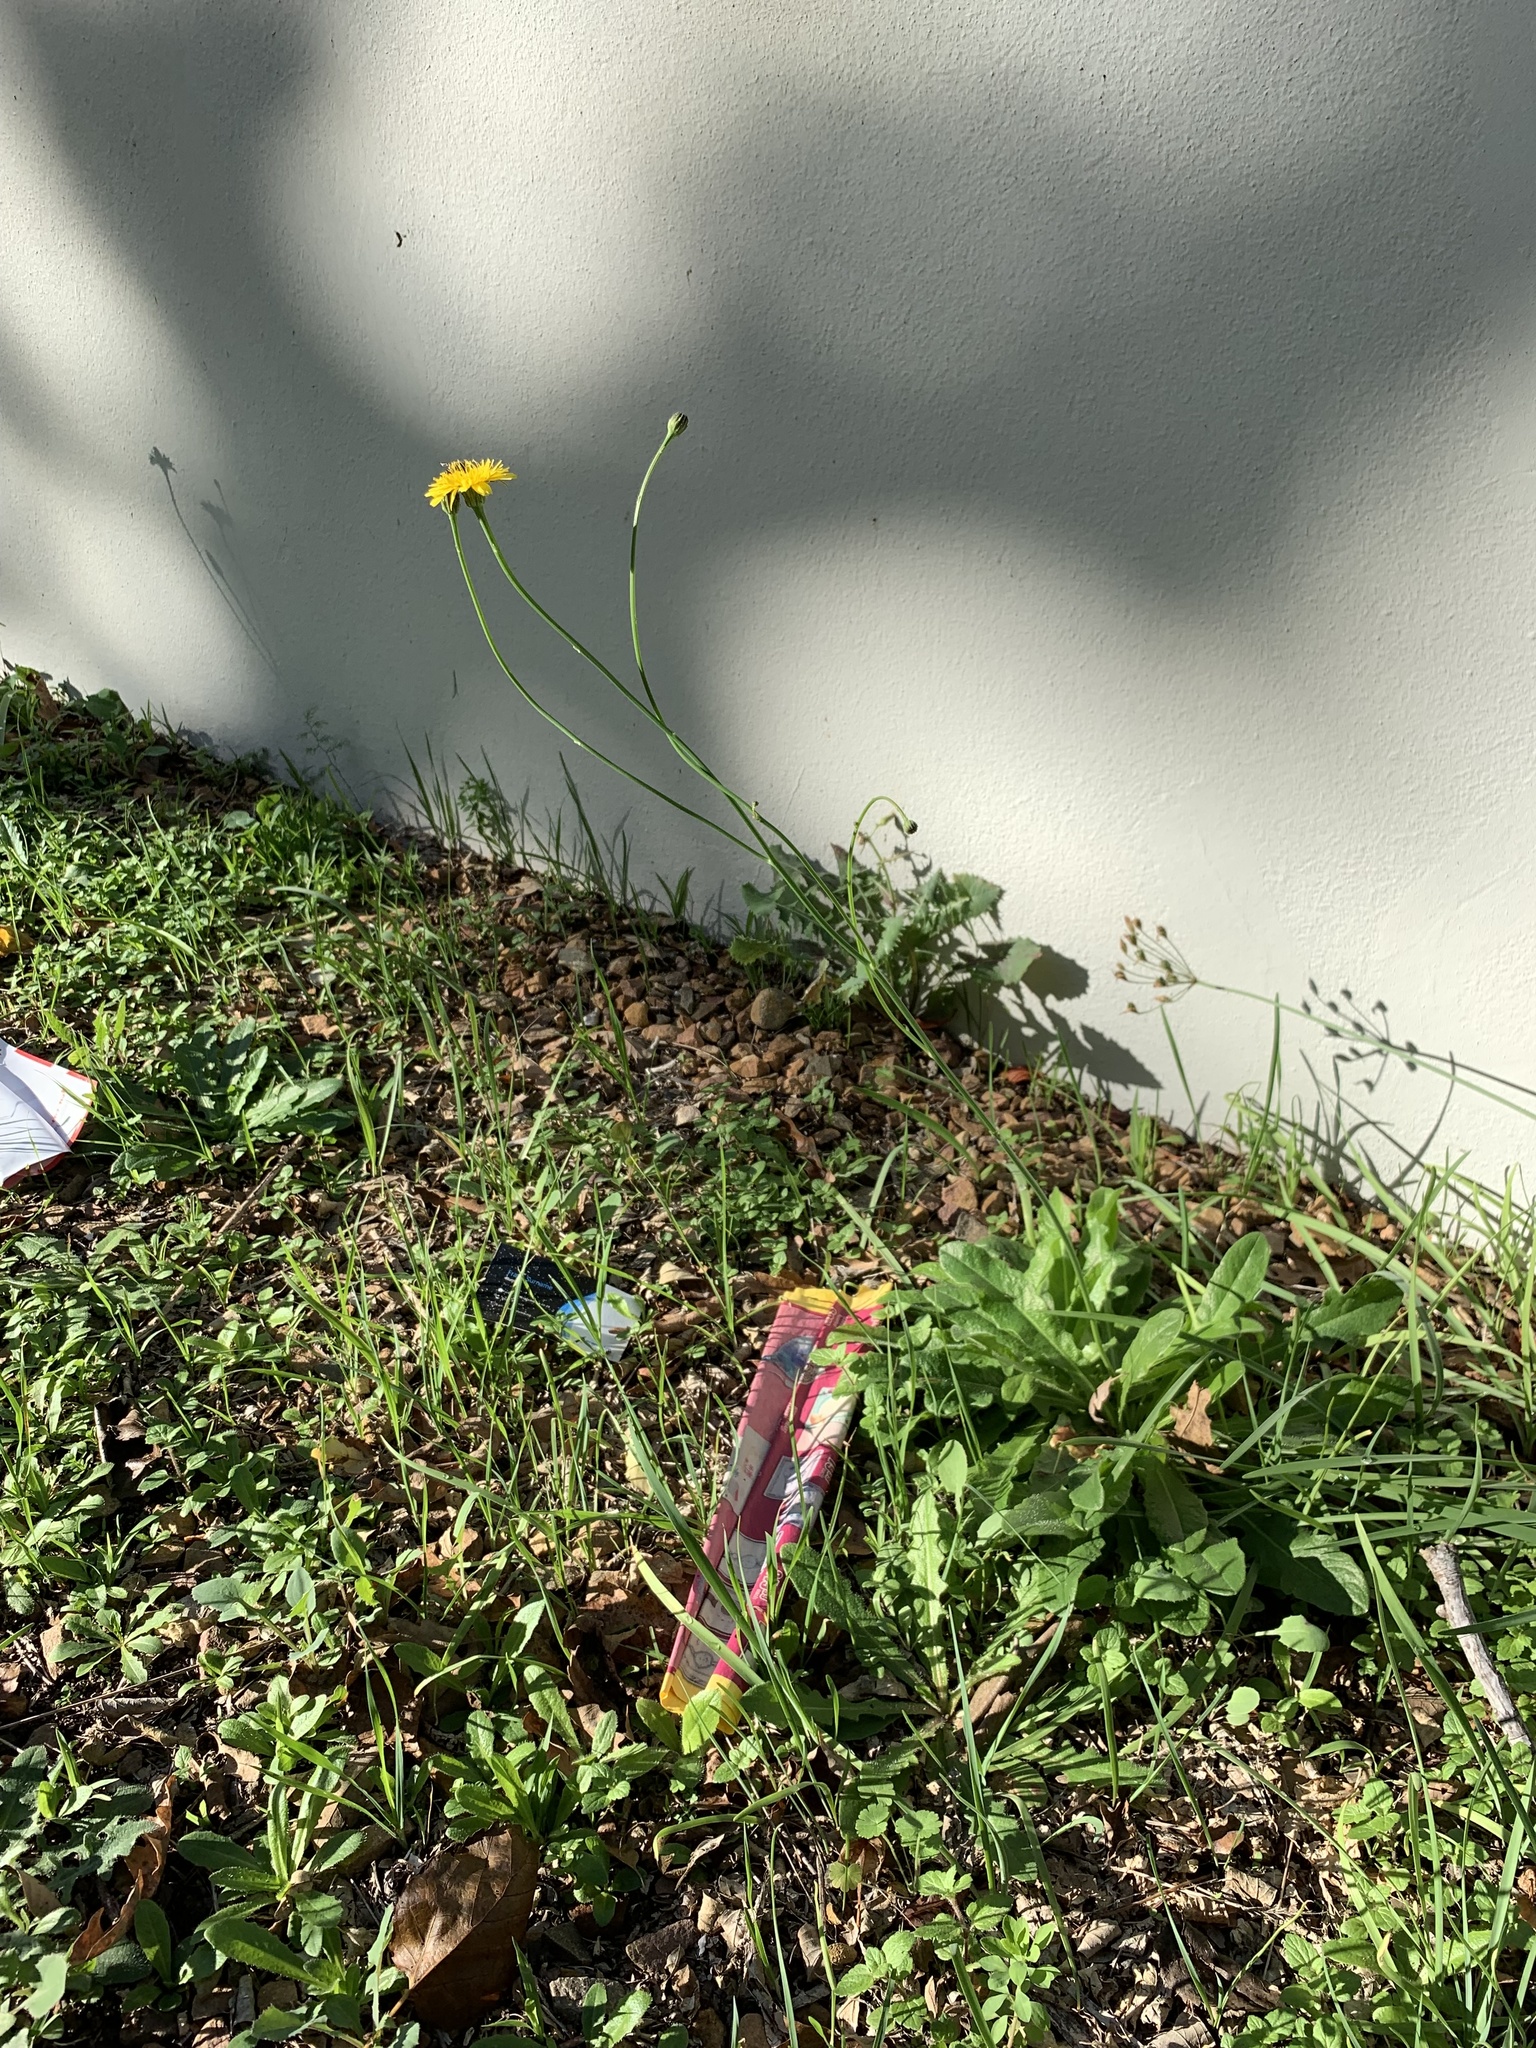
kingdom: Plantae
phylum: Tracheophyta
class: Magnoliopsida
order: Asterales
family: Asteraceae
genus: Hypochaeris
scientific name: Hypochaeris radicata
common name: Flatweed
